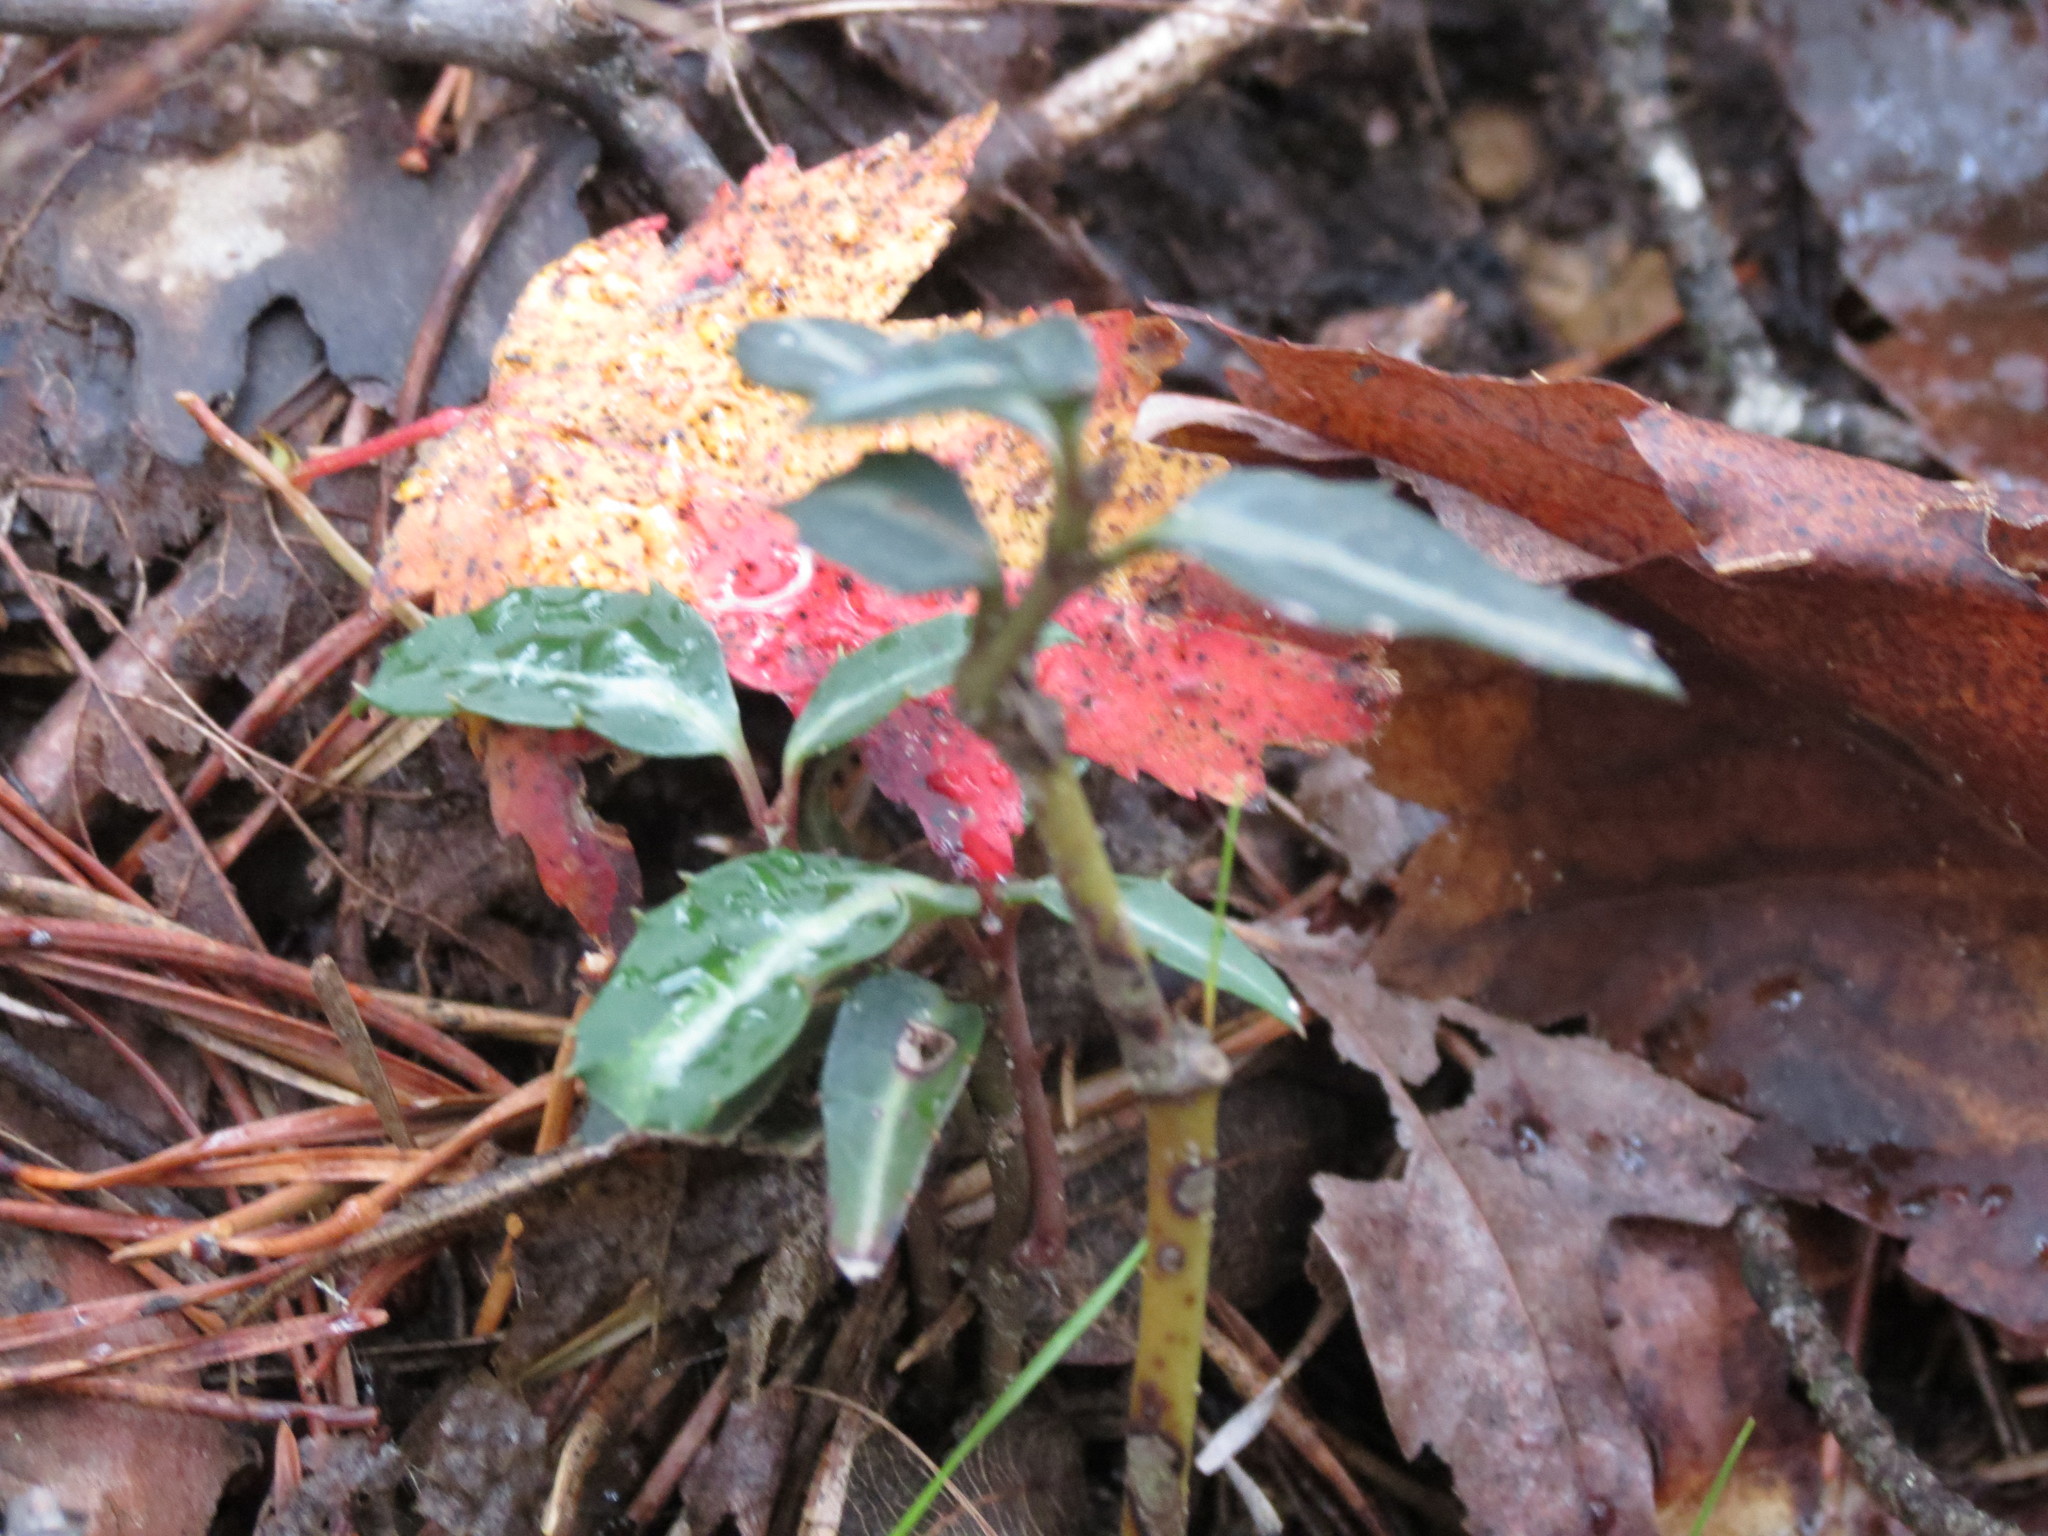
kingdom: Plantae
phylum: Tracheophyta
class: Magnoliopsida
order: Ericales
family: Ericaceae
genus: Chimaphila
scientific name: Chimaphila maculata
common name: Spotted pipsissewa
